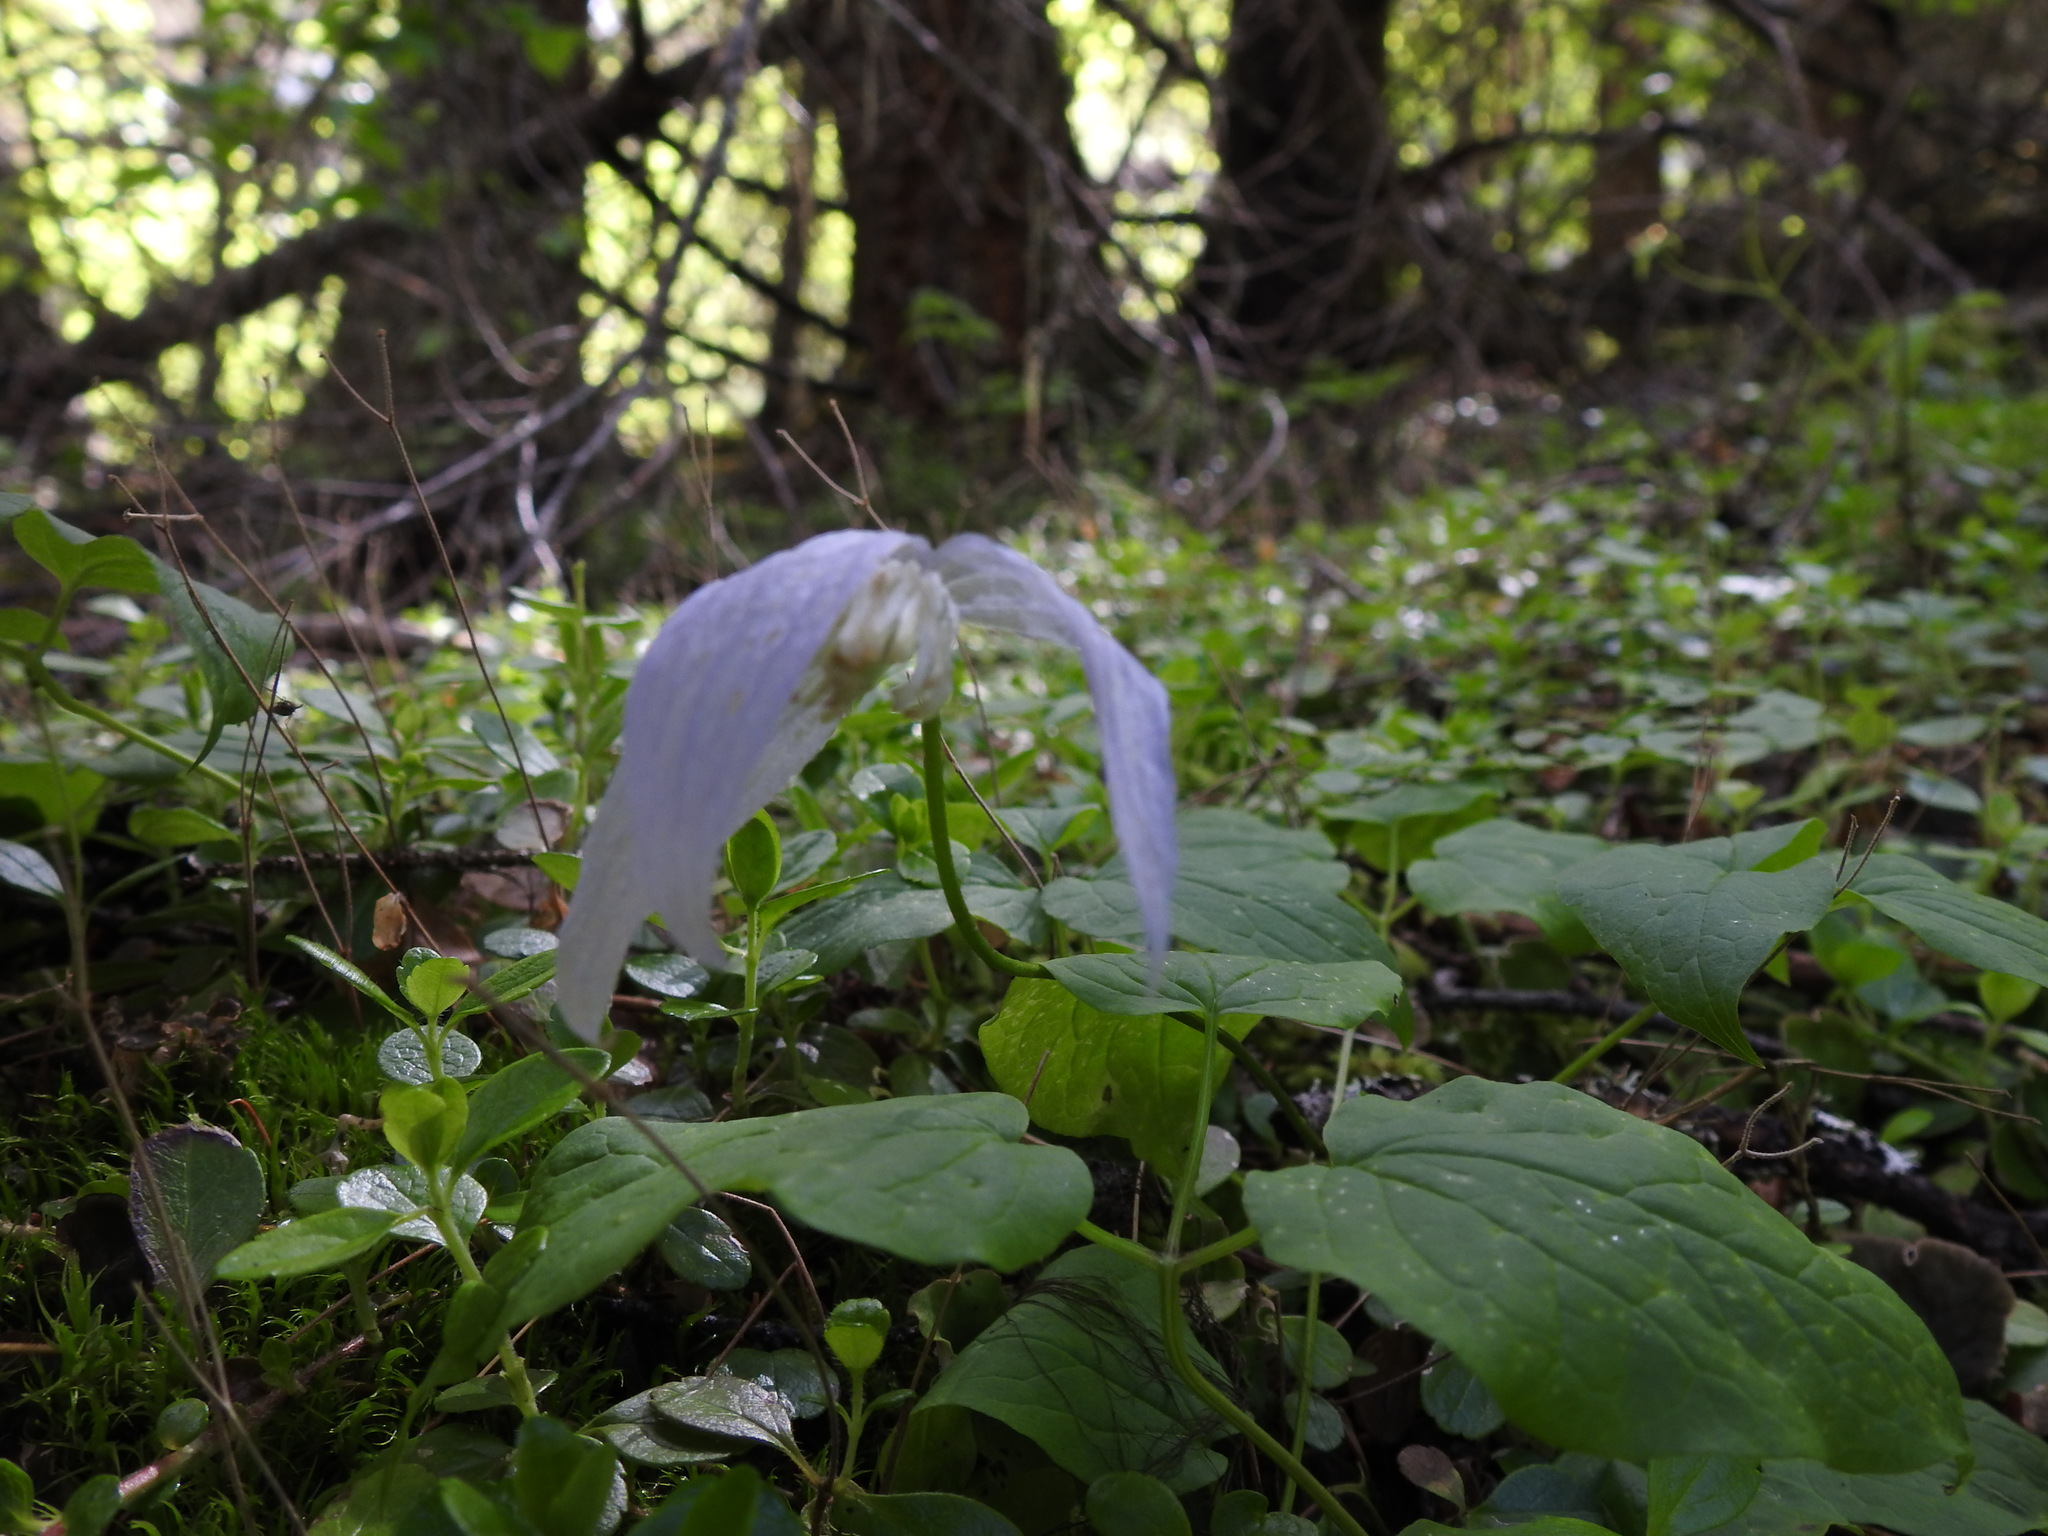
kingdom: Plantae
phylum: Tracheophyta
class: Magnoliopsida
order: Ranunculales
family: Ranunculaceae
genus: Clematis
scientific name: Clematis occidentalis
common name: Purple clematis
